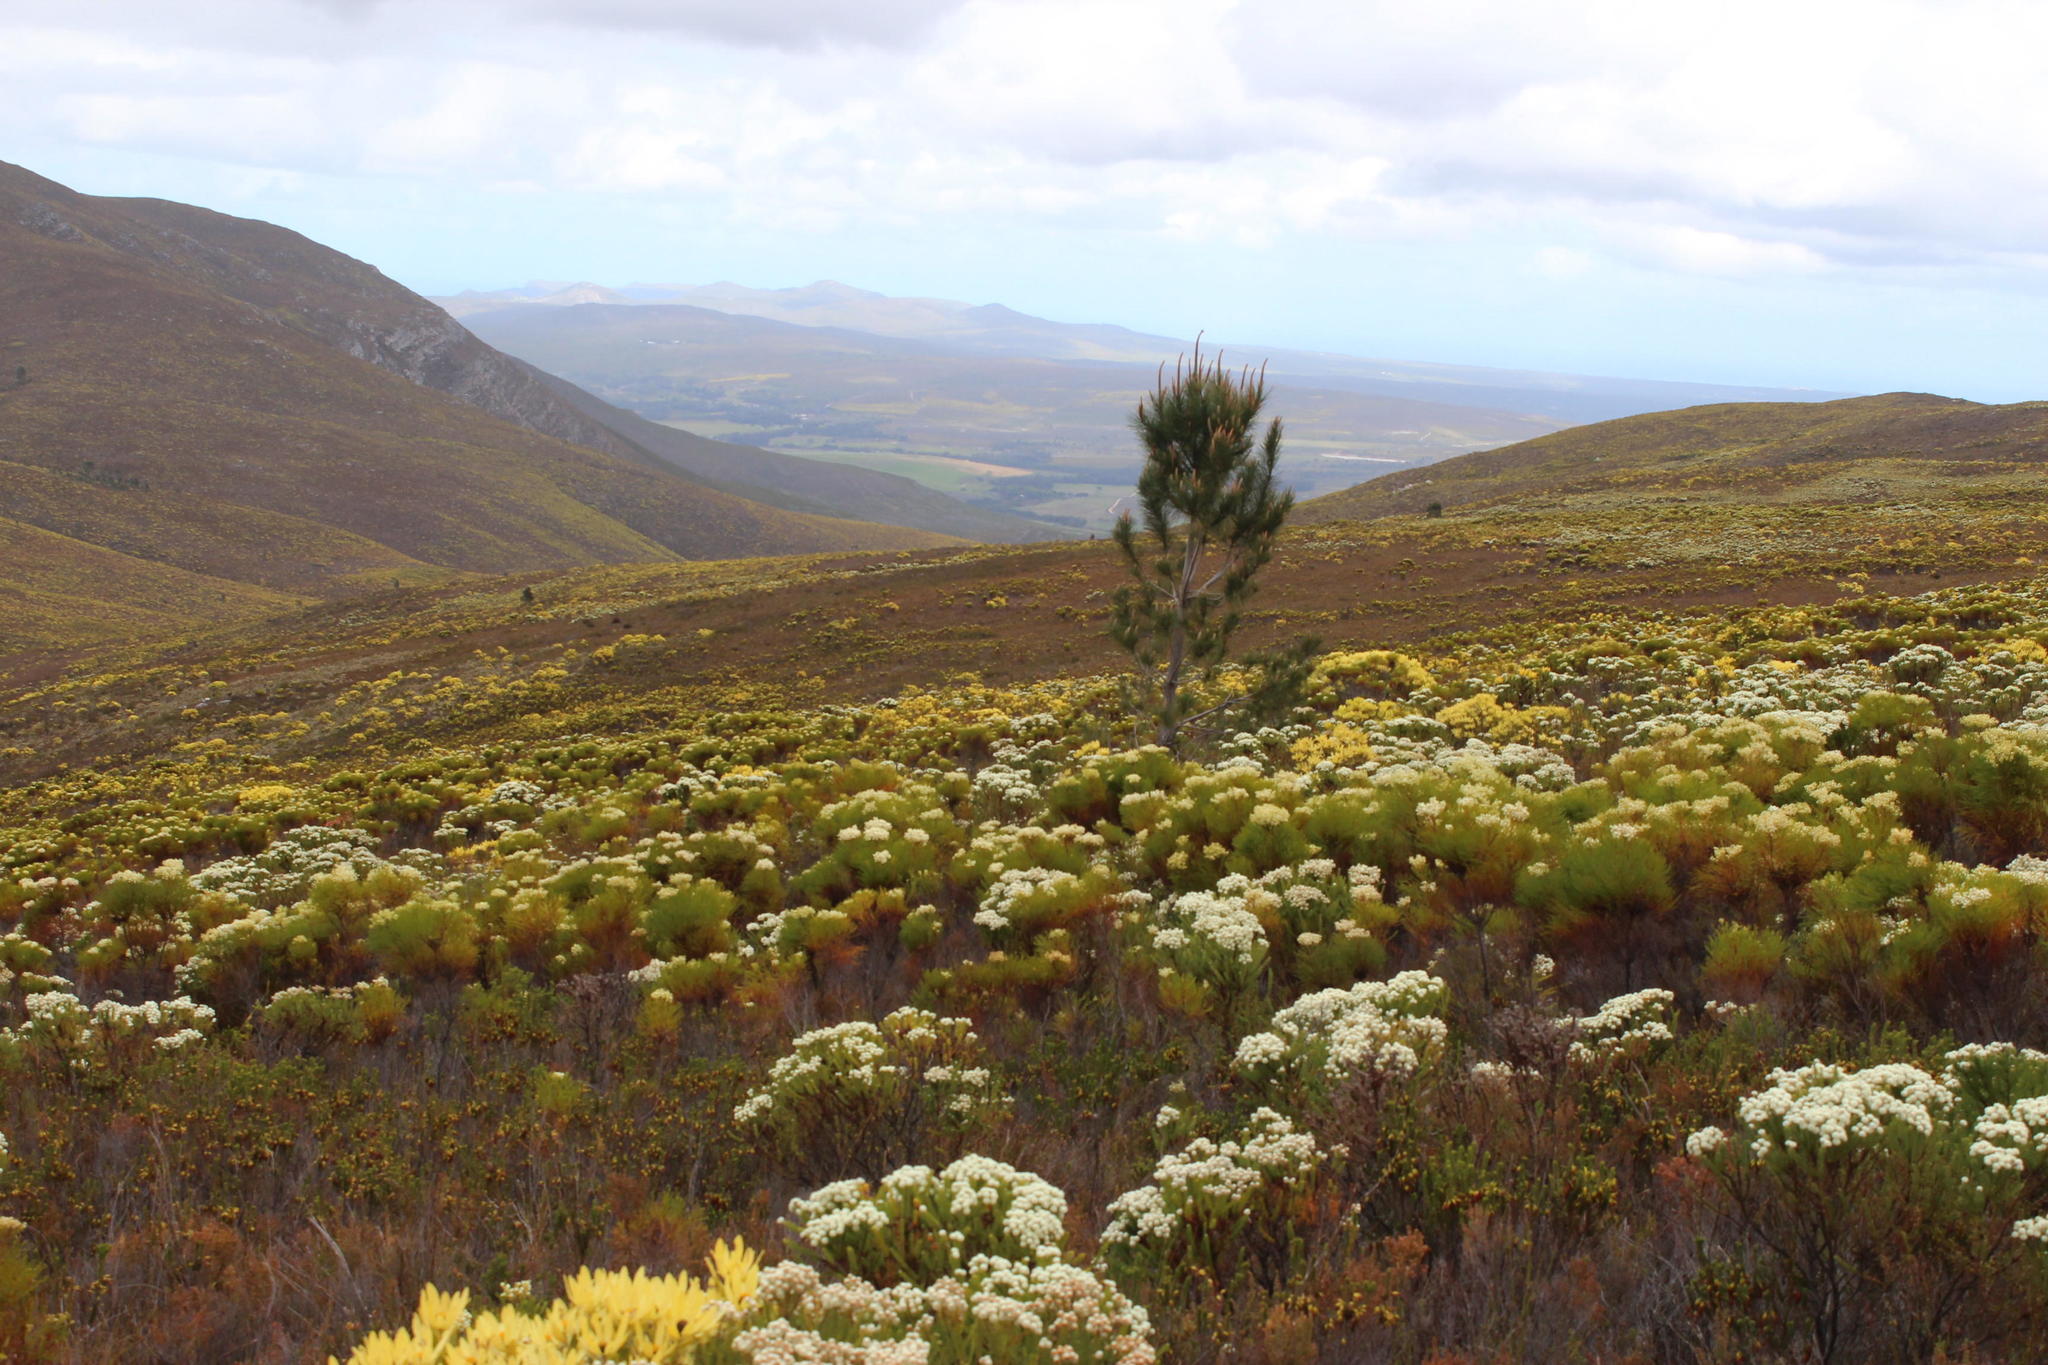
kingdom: Plantae
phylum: Tracheophyta
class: Pinopsida
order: Pinales
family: Pinaceae
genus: Pinus
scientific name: Pinus pinaster
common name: Maritime pine
